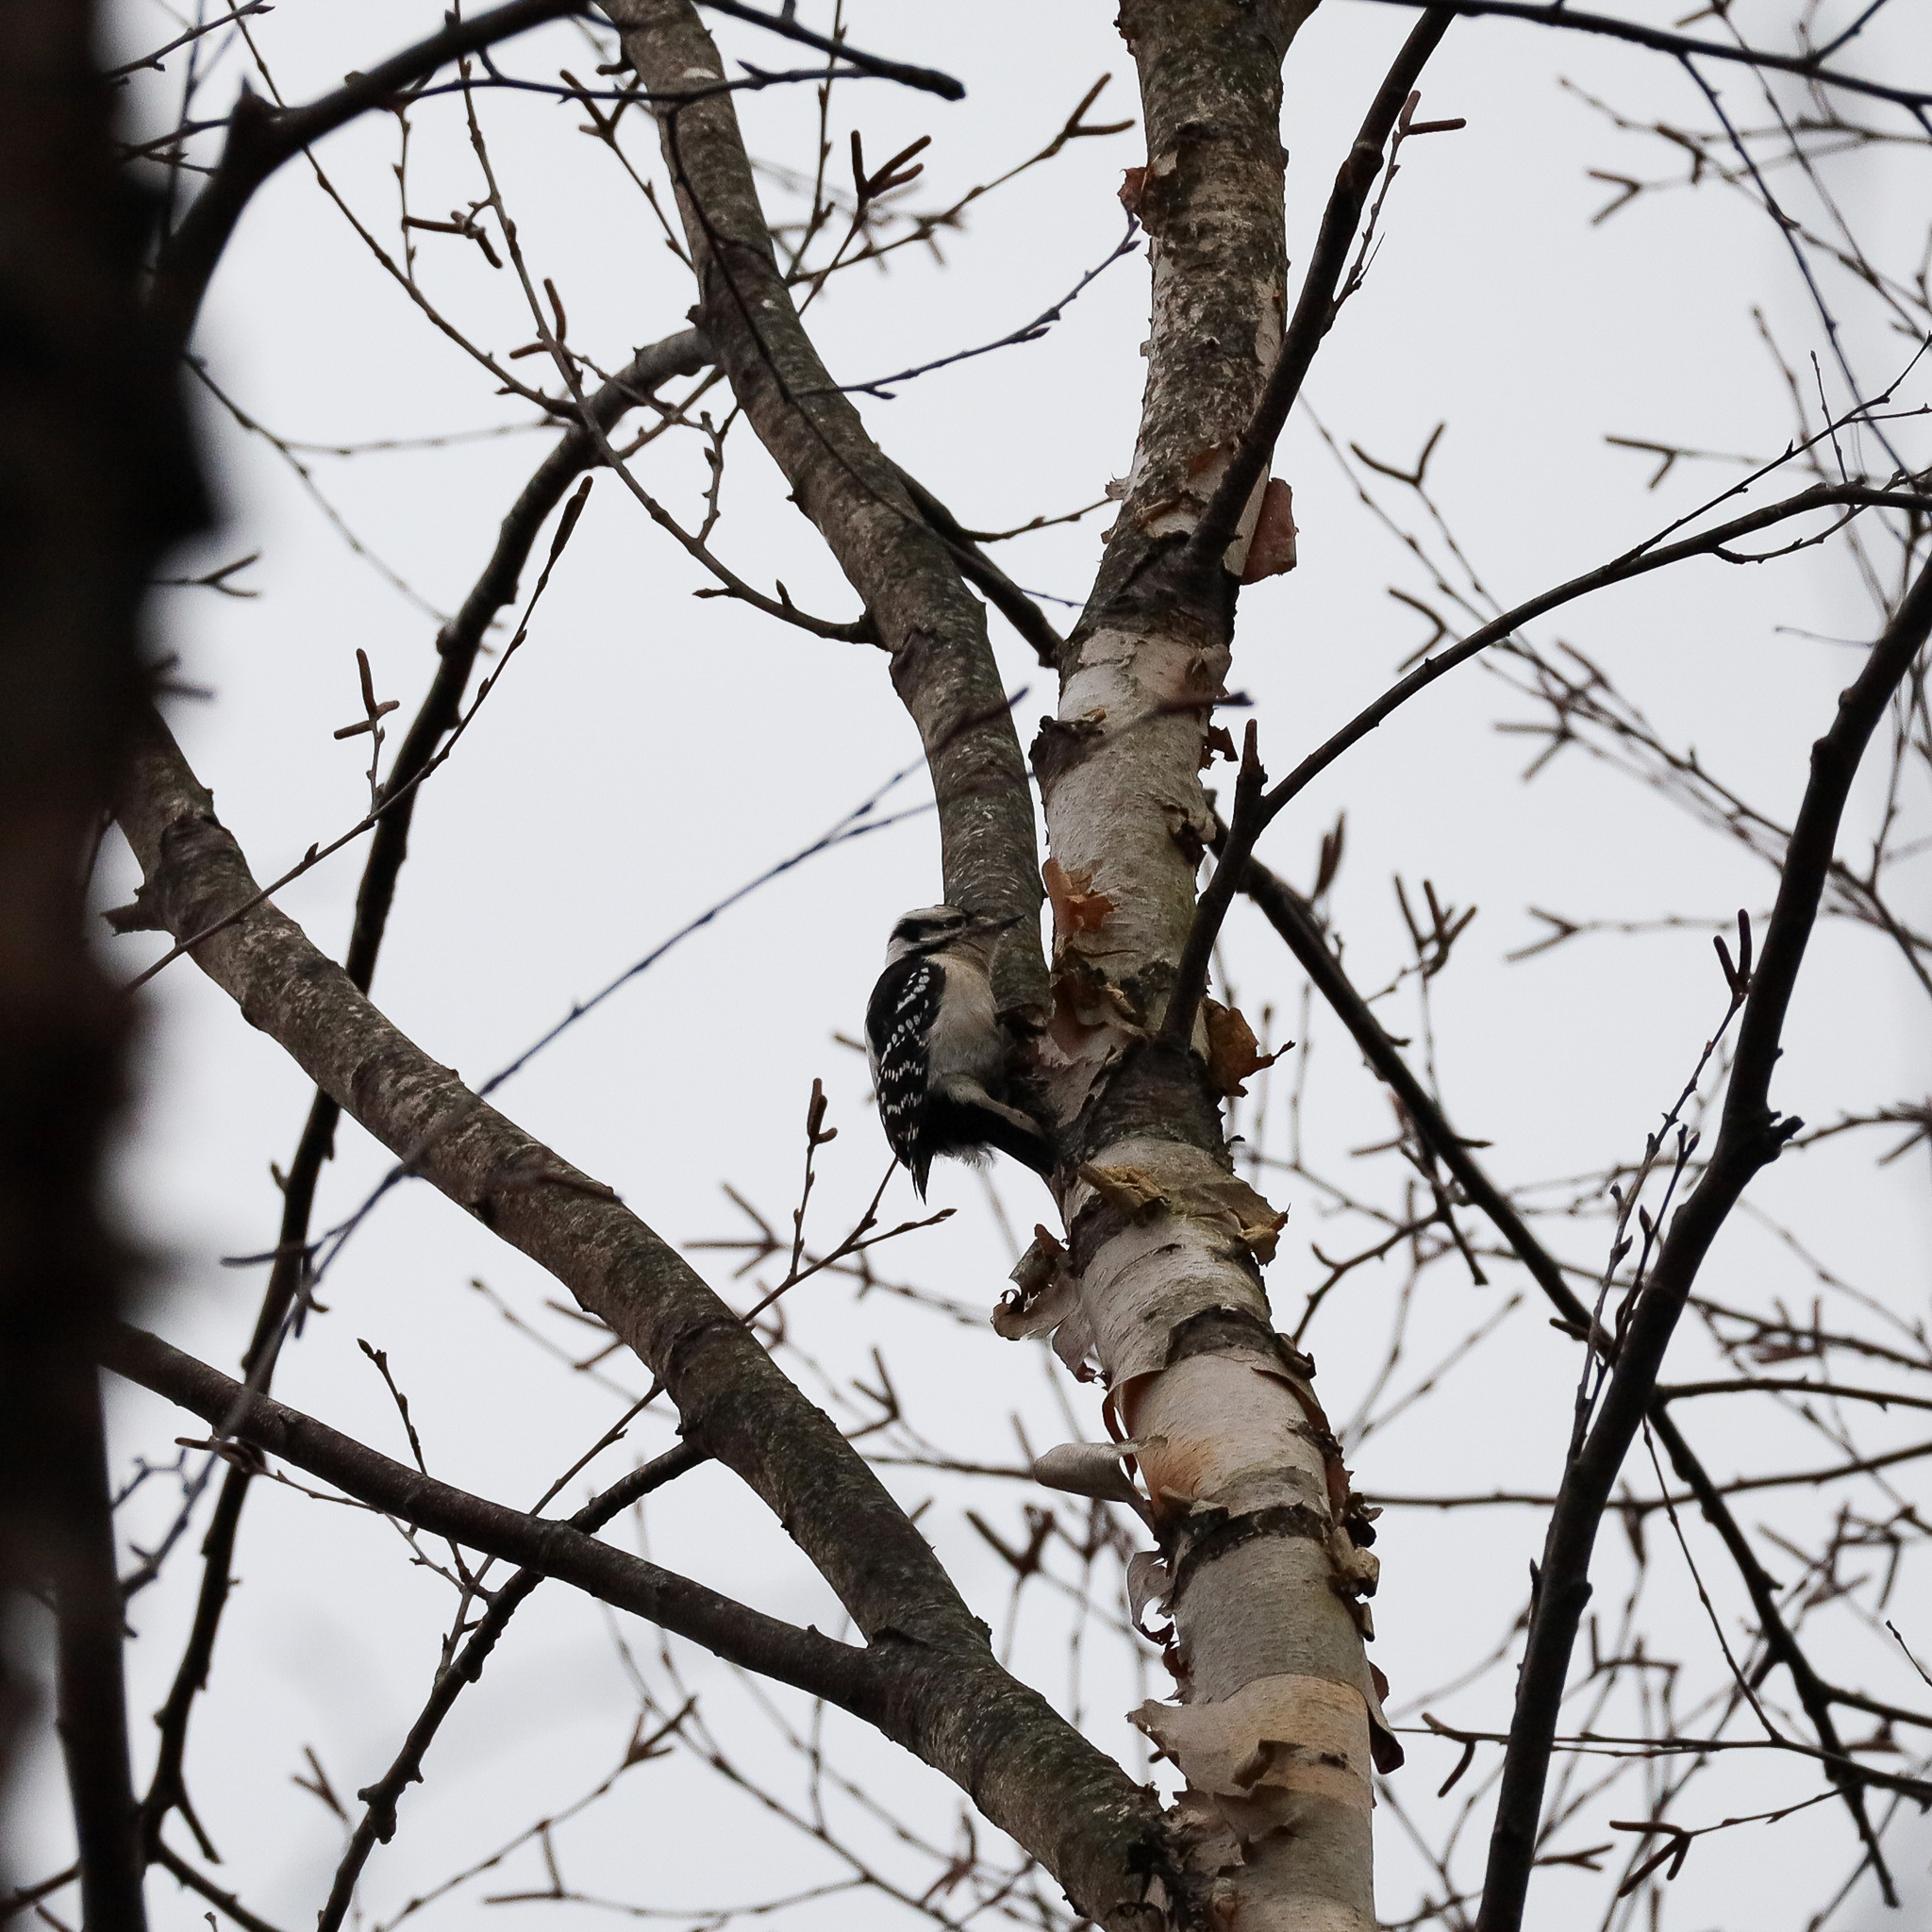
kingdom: Animalia
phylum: Chordata
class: Aves
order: Piciformes
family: Picidae
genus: Dryobates
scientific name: Dryobates pubescens
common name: Downy woodpecker
